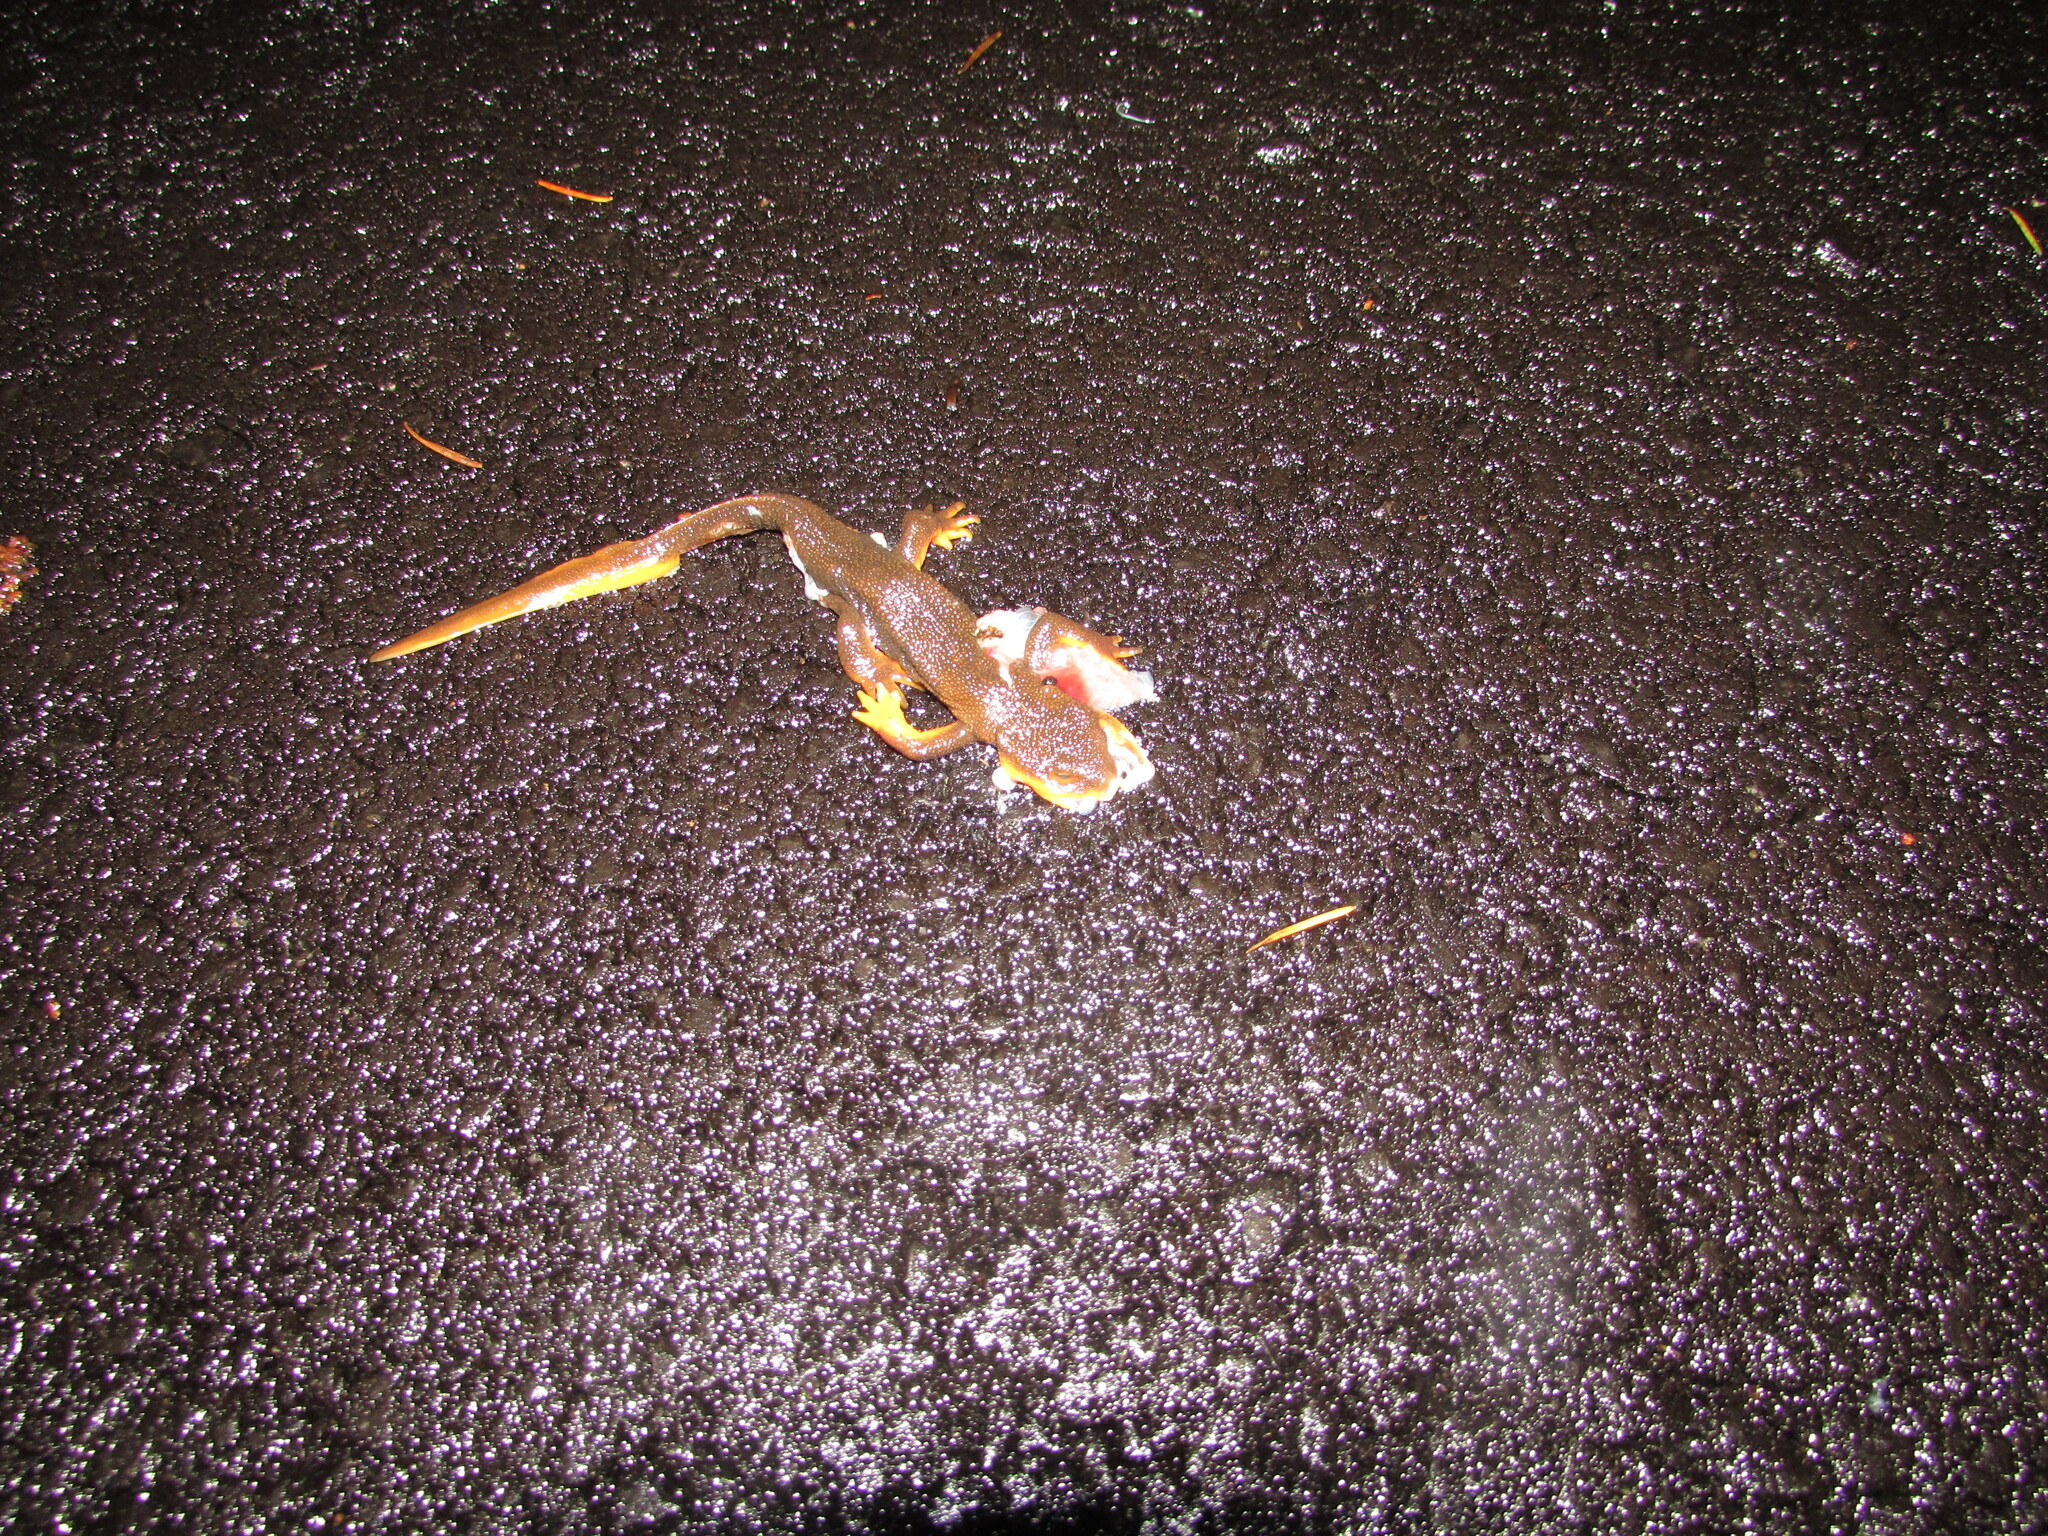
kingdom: Animalia
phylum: Chordata
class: Amphibia
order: Caudata
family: Salamandridae
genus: Taricha
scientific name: Taricha granulosa
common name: Roughskin newt
